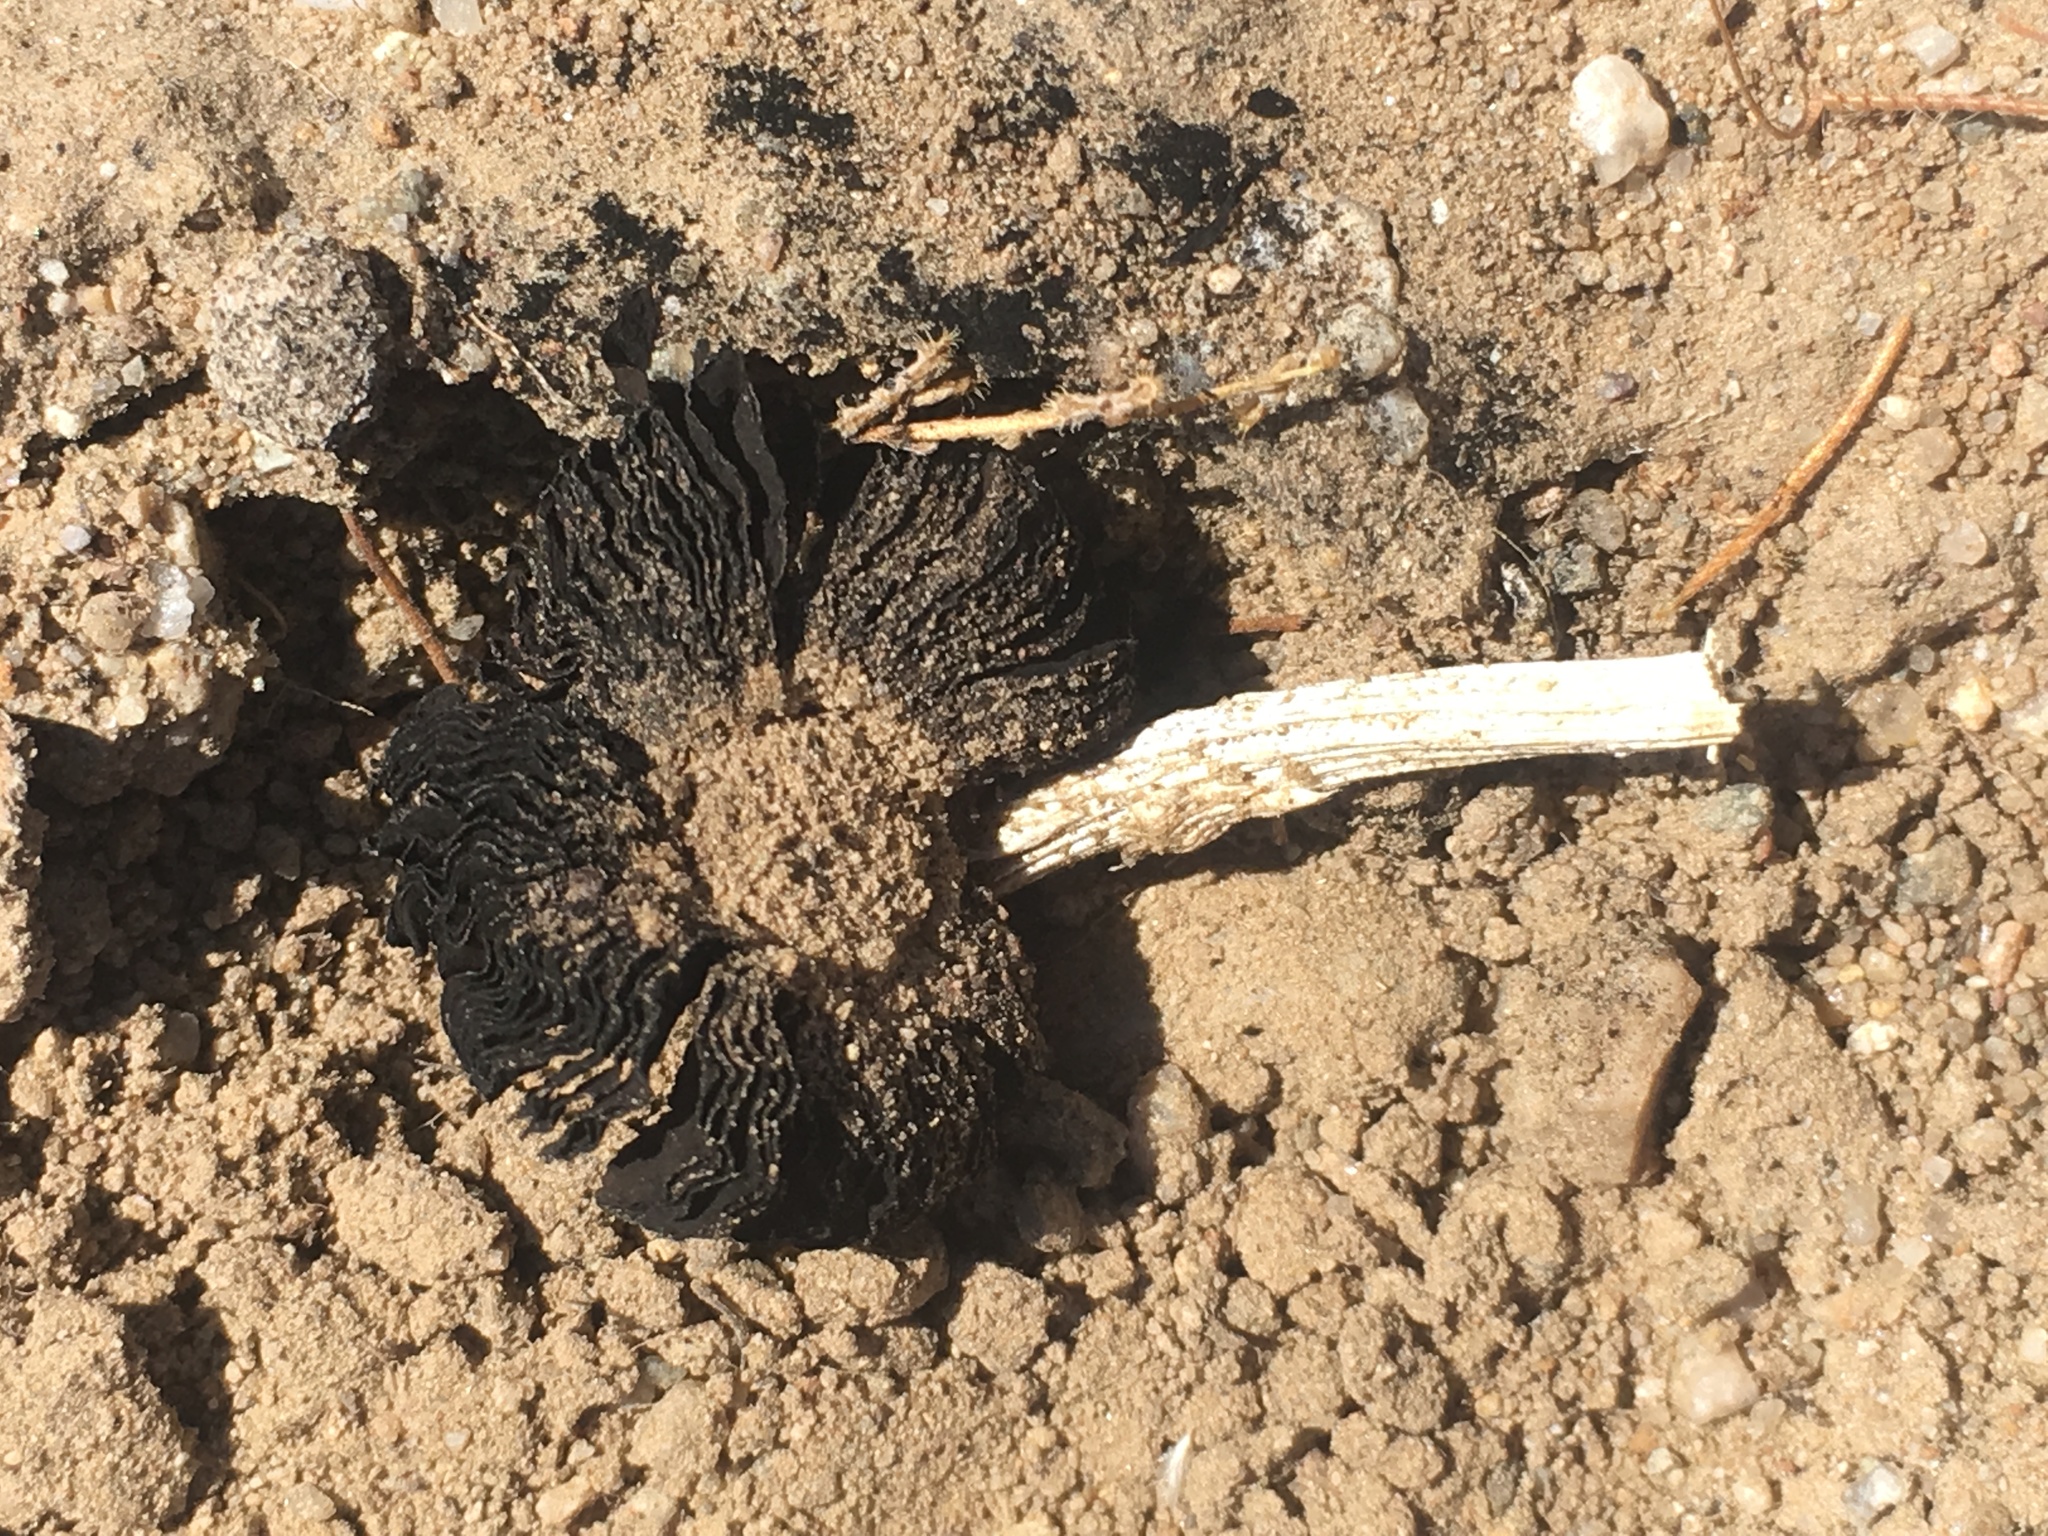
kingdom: Fungi
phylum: Basidiomycota
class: Agaricomycetes
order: Agaricales
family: Agaricaceae
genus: Montagnea
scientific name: Montagnea arenaria
